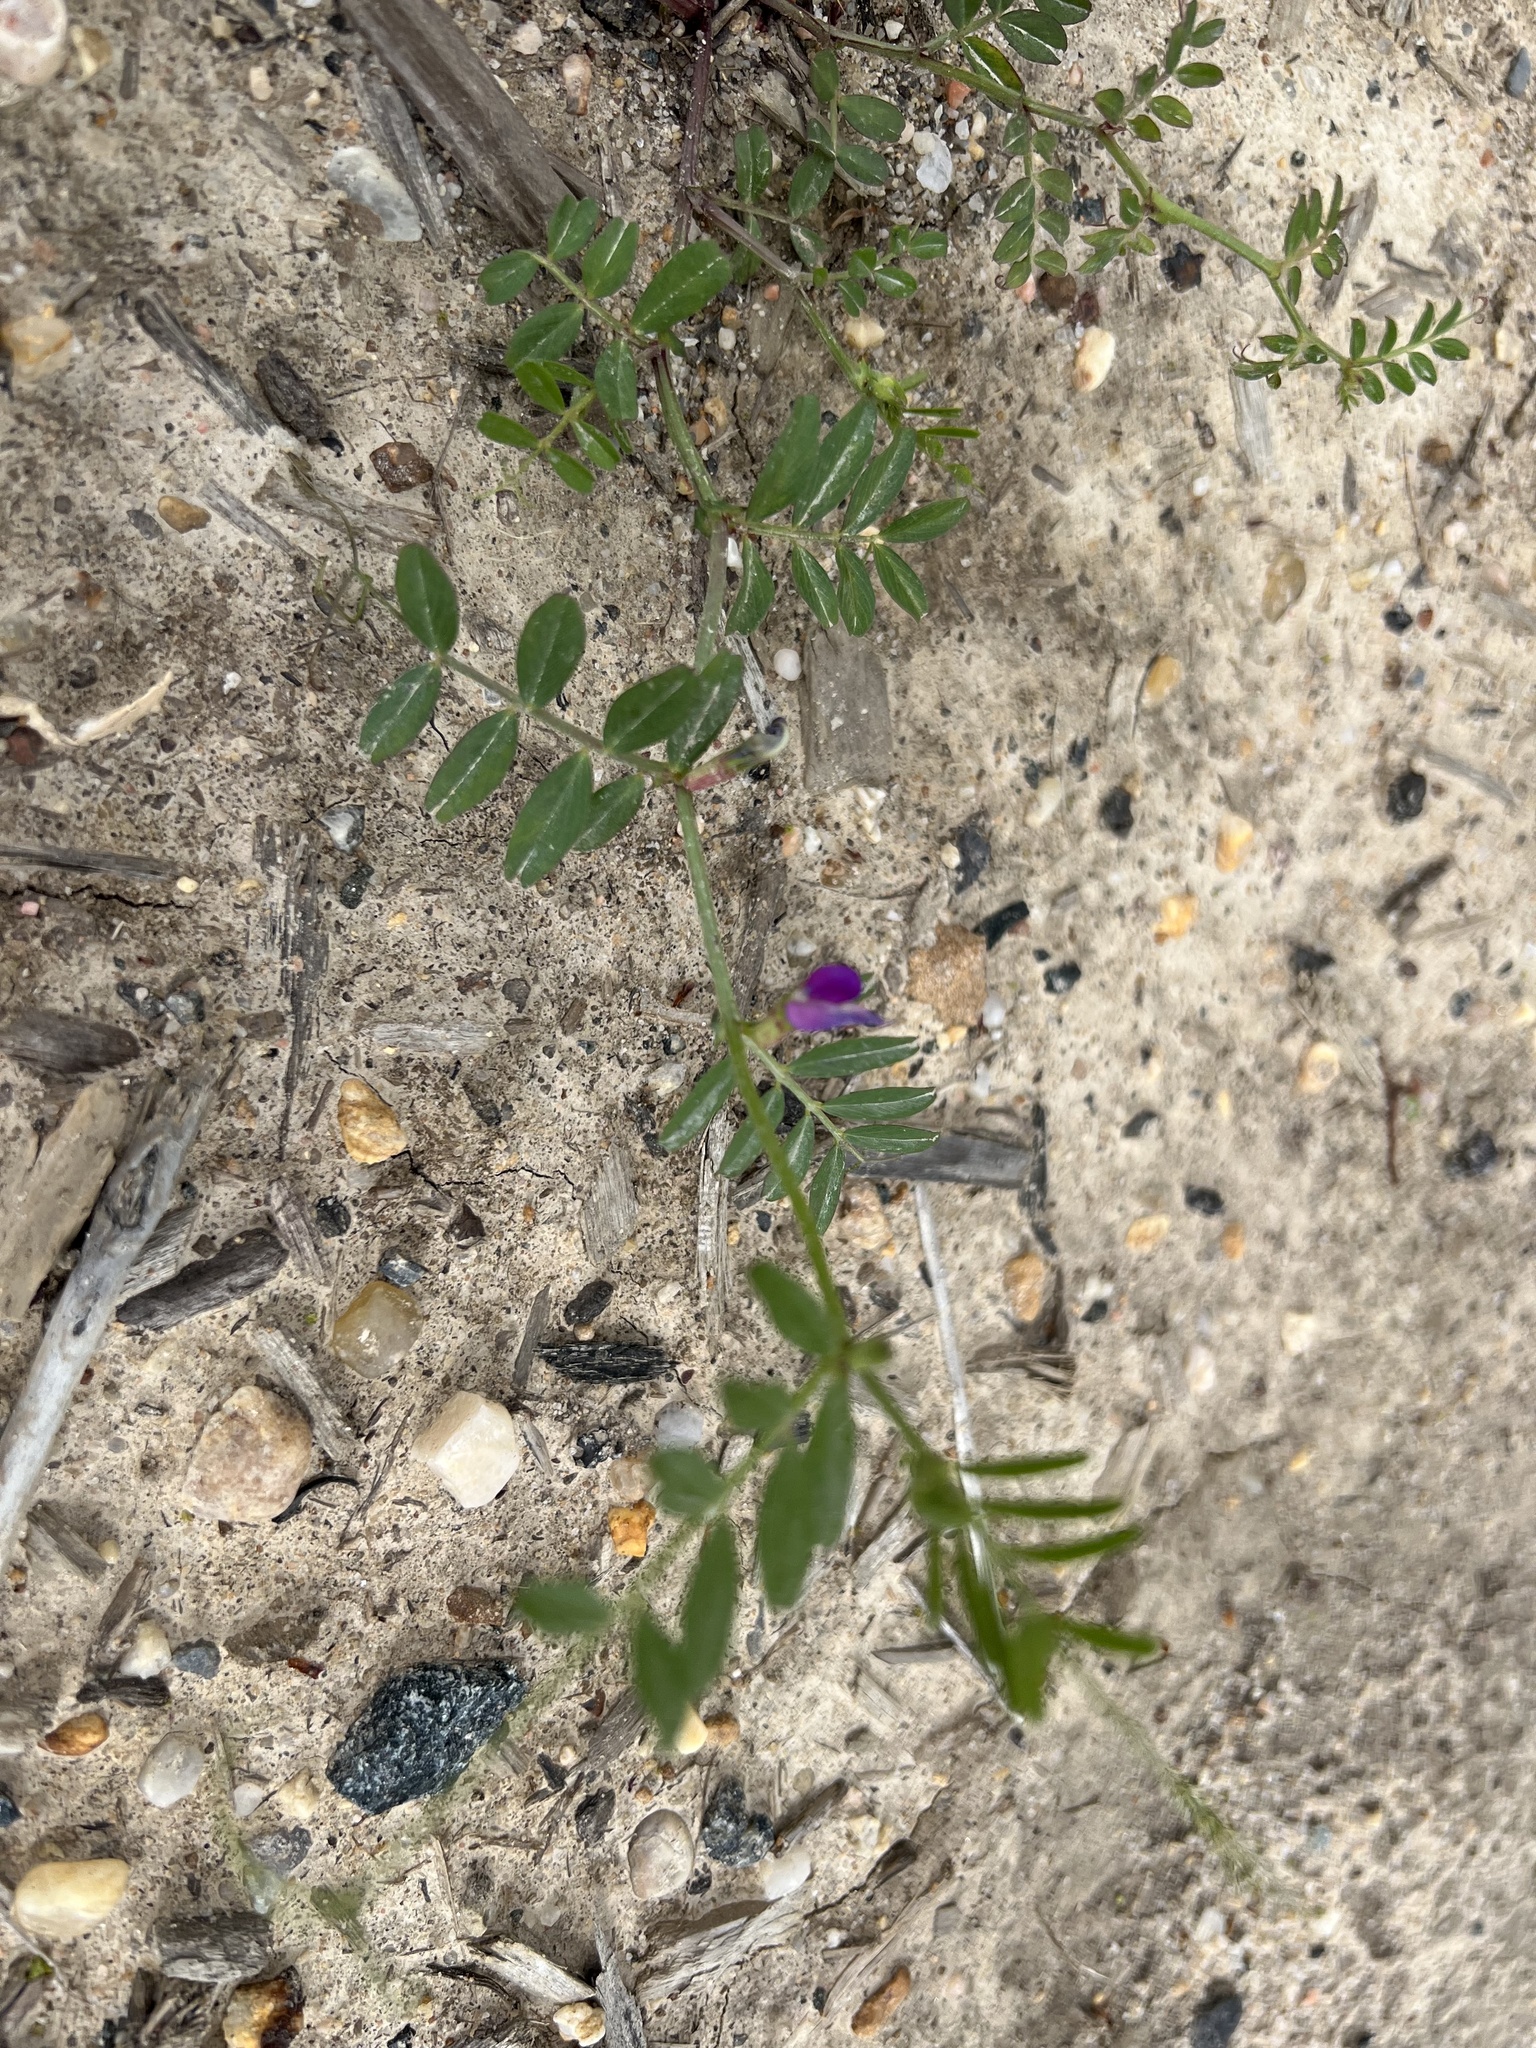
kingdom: Plantae
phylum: Tracheophyta
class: Magnoliopsida
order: Fabales
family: Fabaceae
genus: Vicia
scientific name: Vicia sativa
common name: Garden vetch
